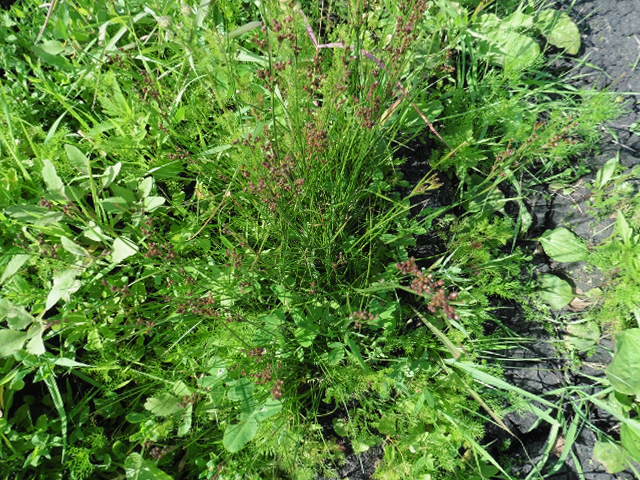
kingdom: Plantae
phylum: Tracheophyta
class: Liliopsida
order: Poales
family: Juncaceae
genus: Juncus
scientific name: Juncus compressus
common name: Round-fruited rush
